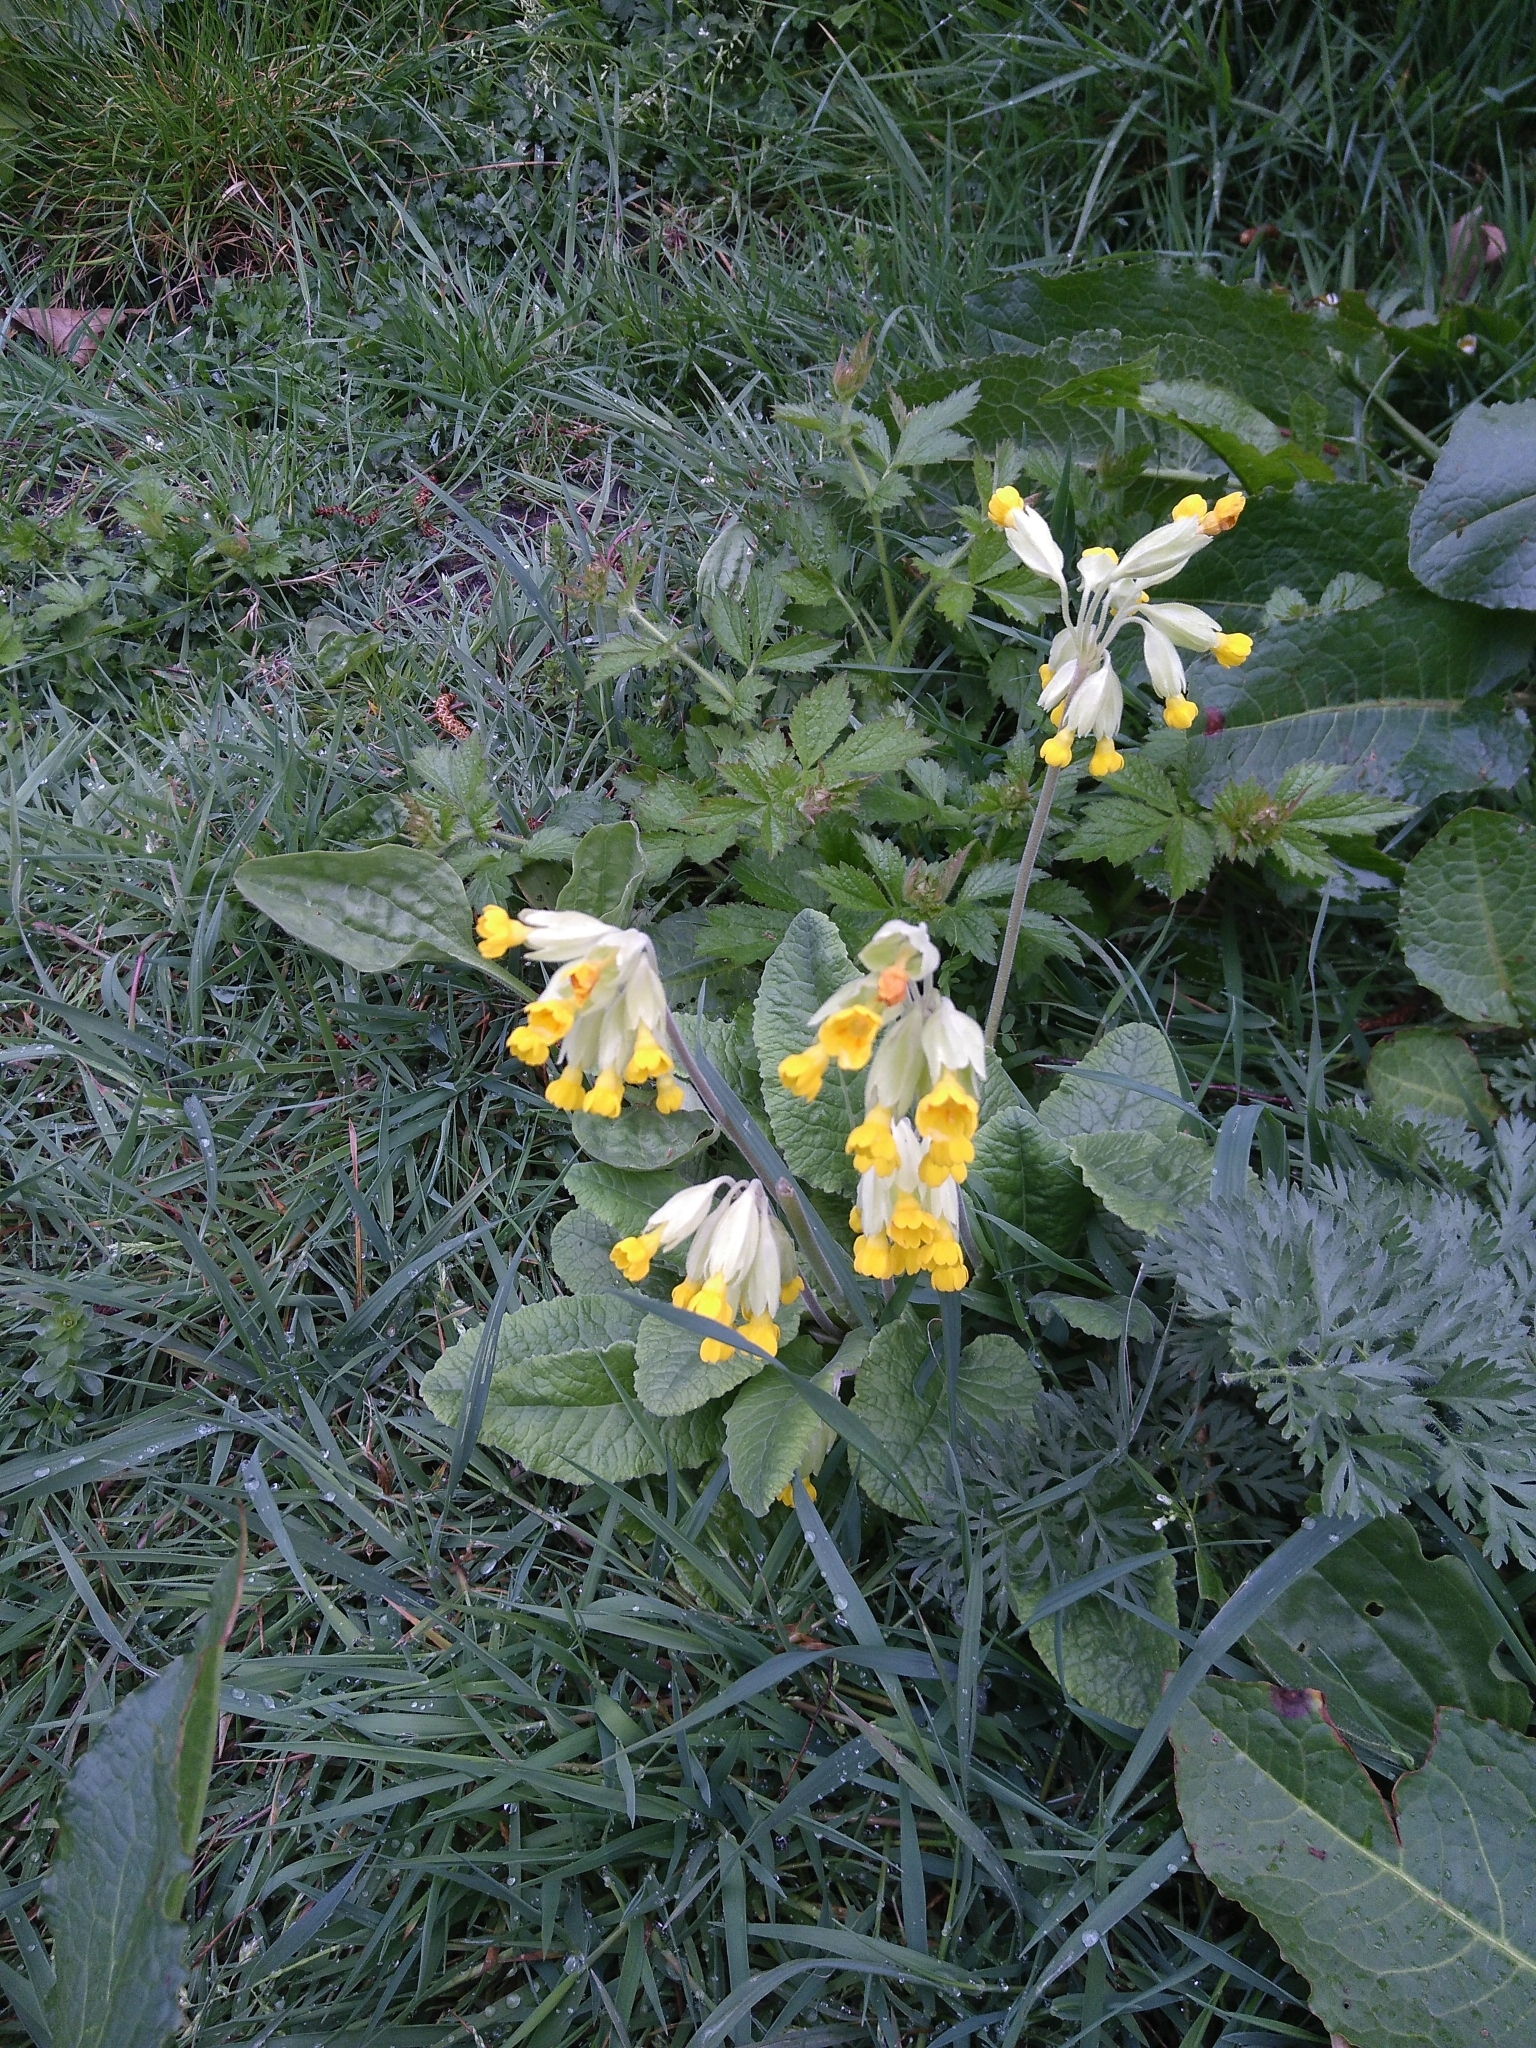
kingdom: Plantae
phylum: Tracheophyta
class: Magnoliopsida
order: Ericales
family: Primulaceae
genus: Primula
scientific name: Primula veris
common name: Cowslip
